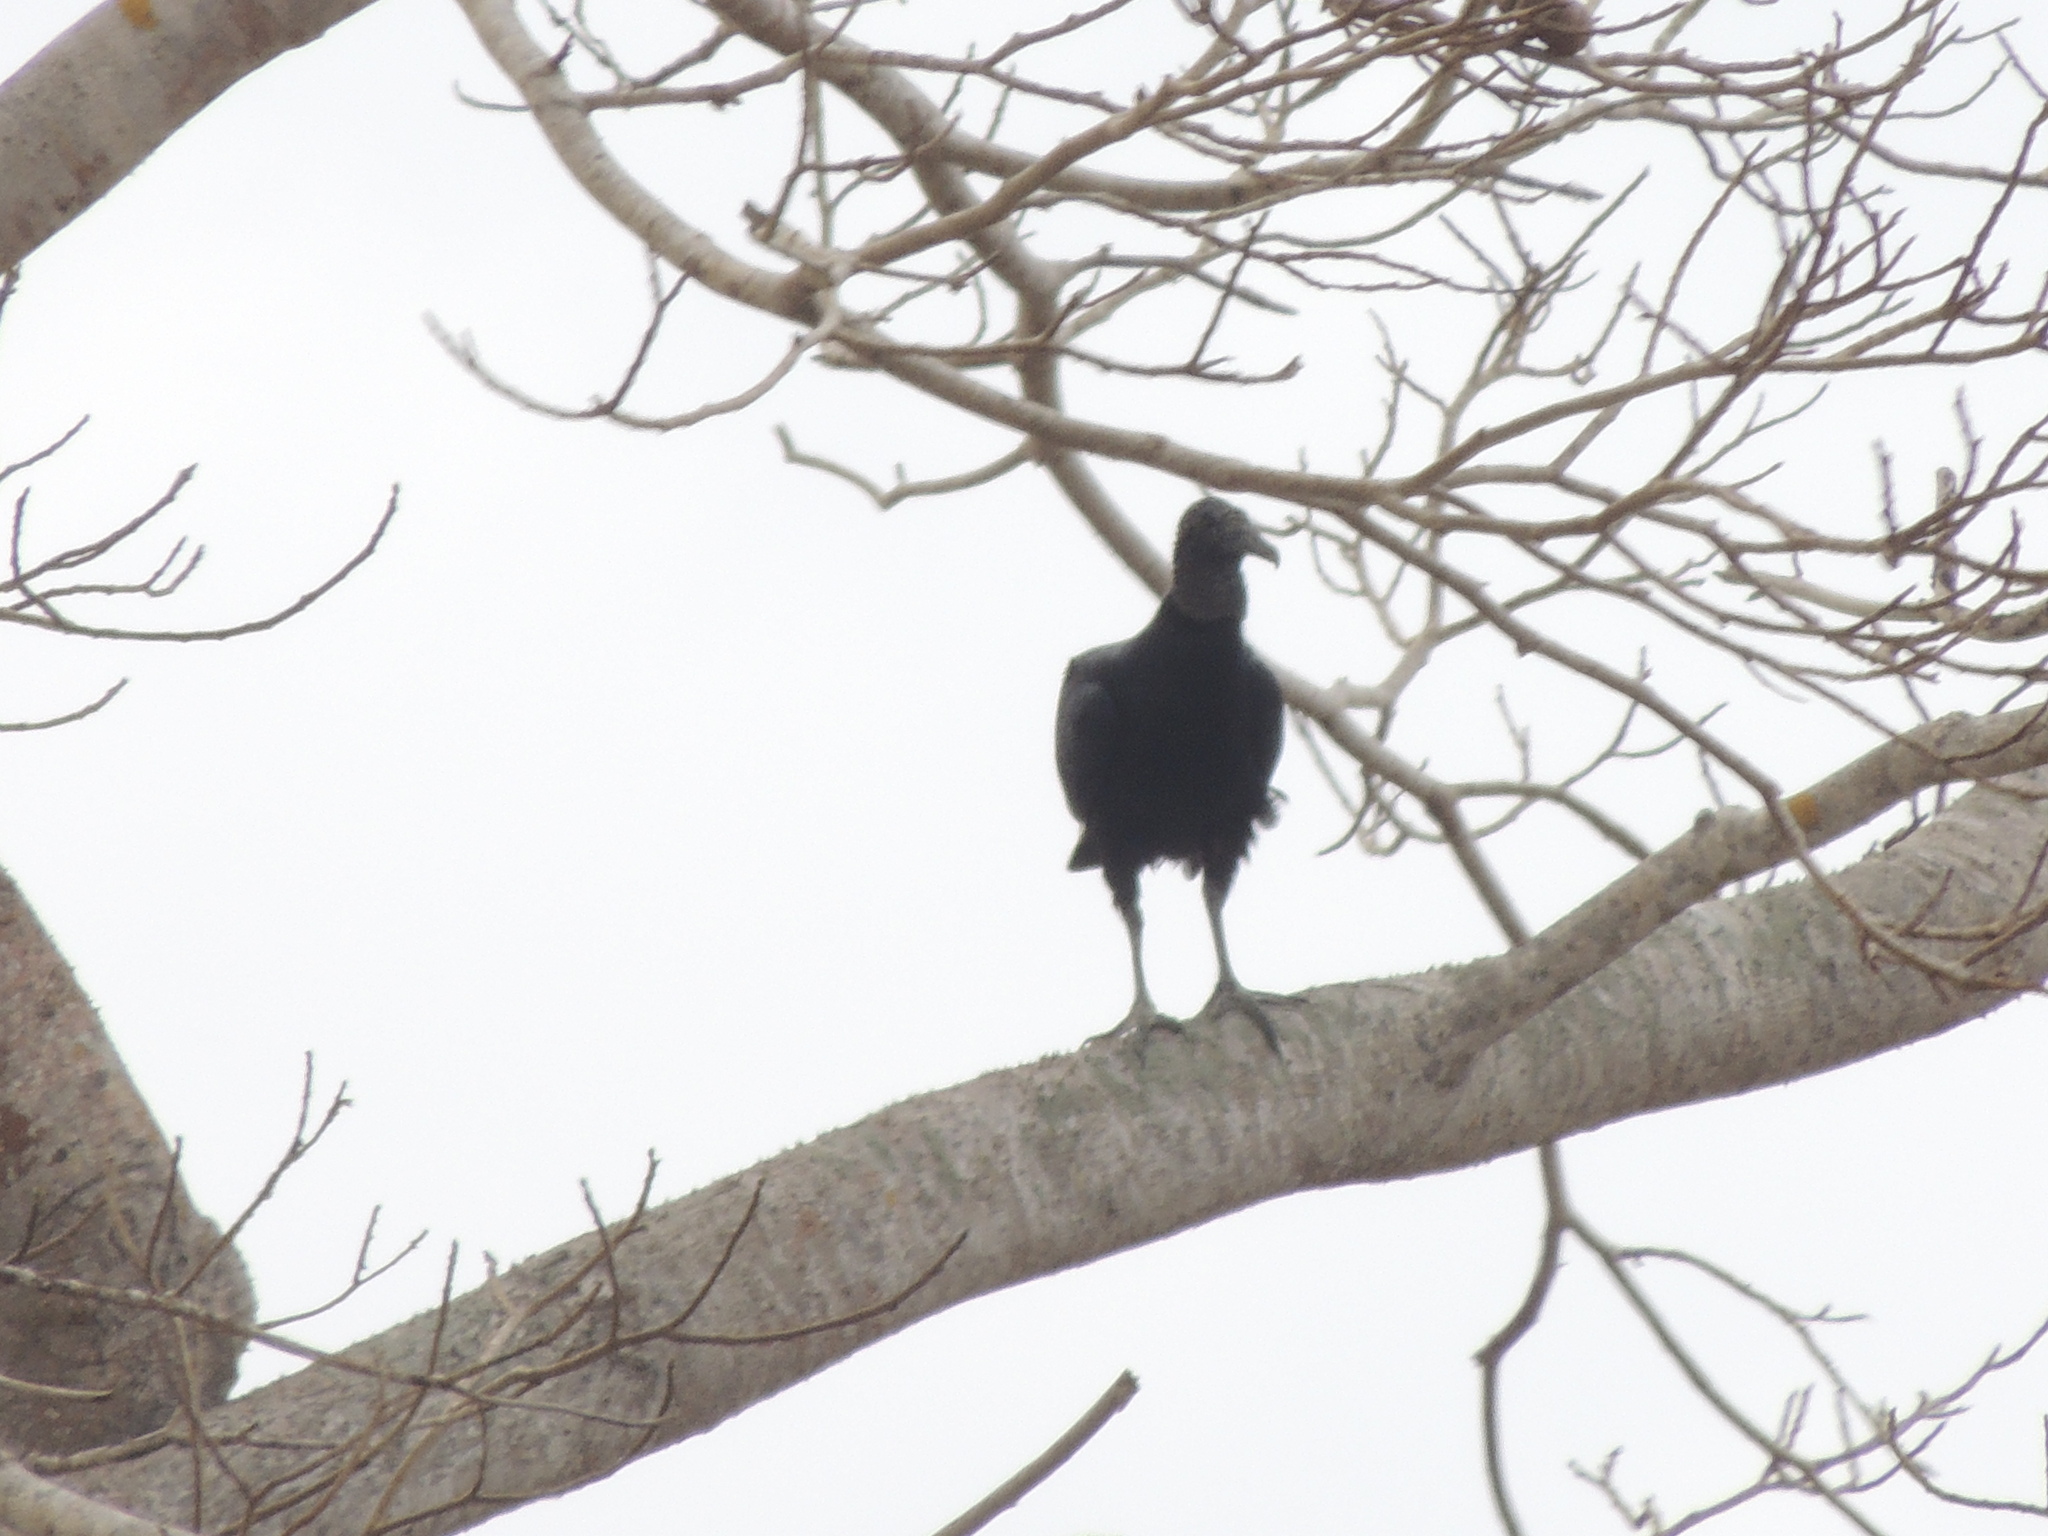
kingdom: Animalia
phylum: Chordata
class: Aves
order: Accipitriformes
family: Cathartidae
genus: Coragyps
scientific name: Coragyps atratus
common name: Black vulture
